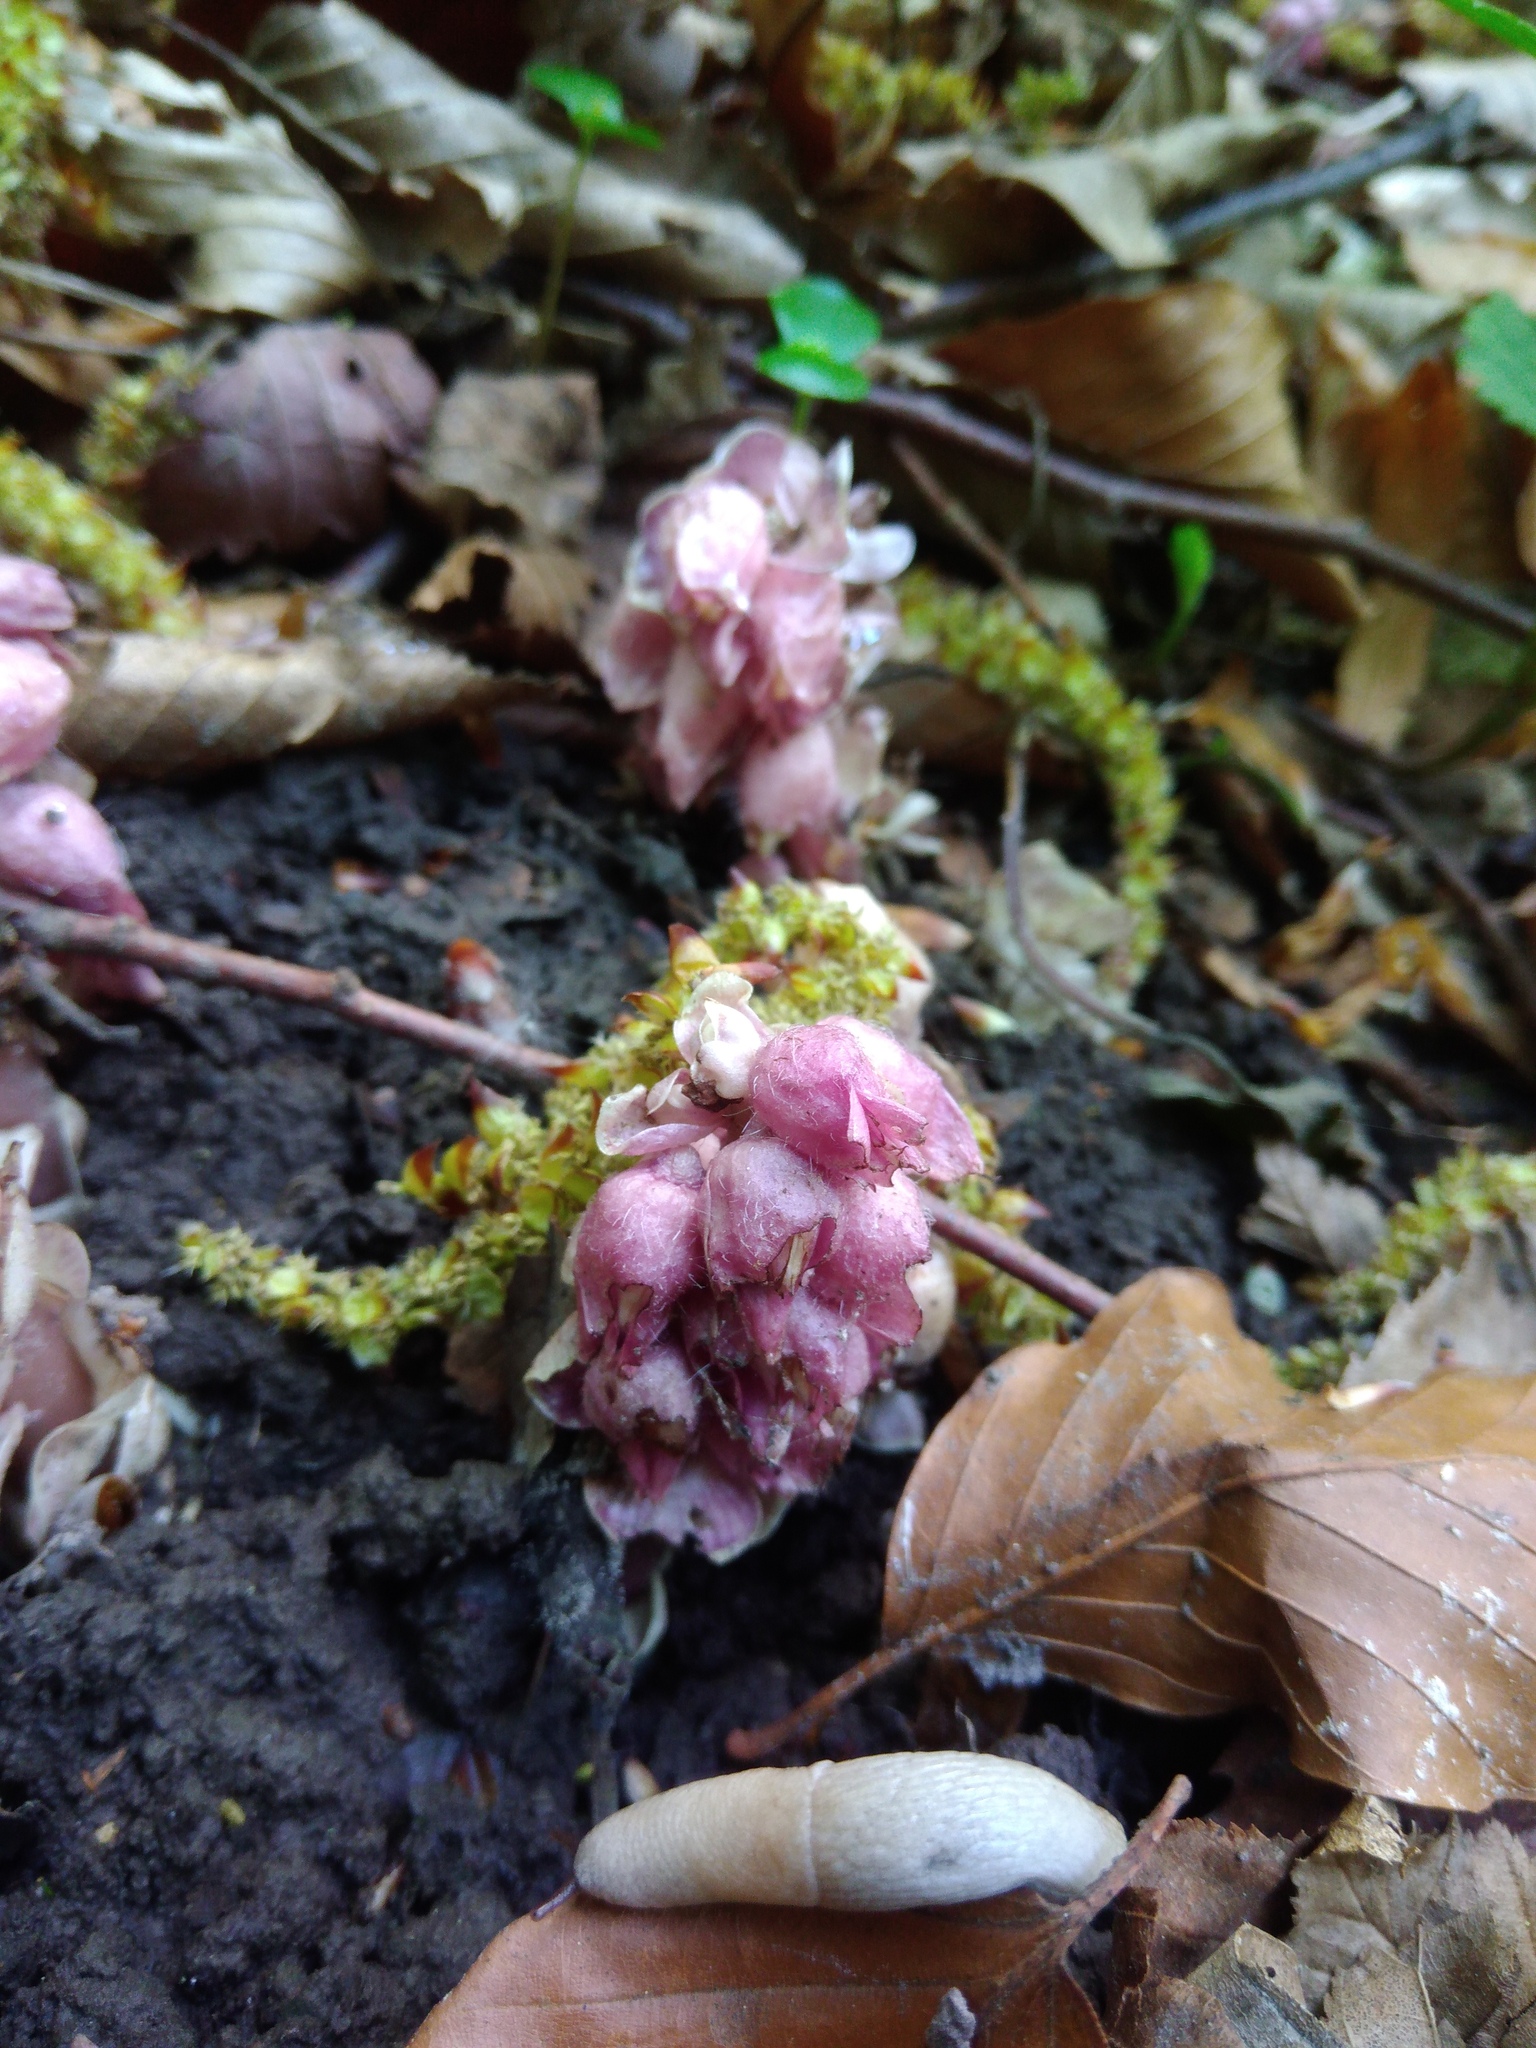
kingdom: Plantae
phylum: Tracheophyta
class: Magnoliopsida
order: Lamiales
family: Orobanchaceae
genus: Lathraea
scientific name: Lathraea squamaria
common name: Toothwort
